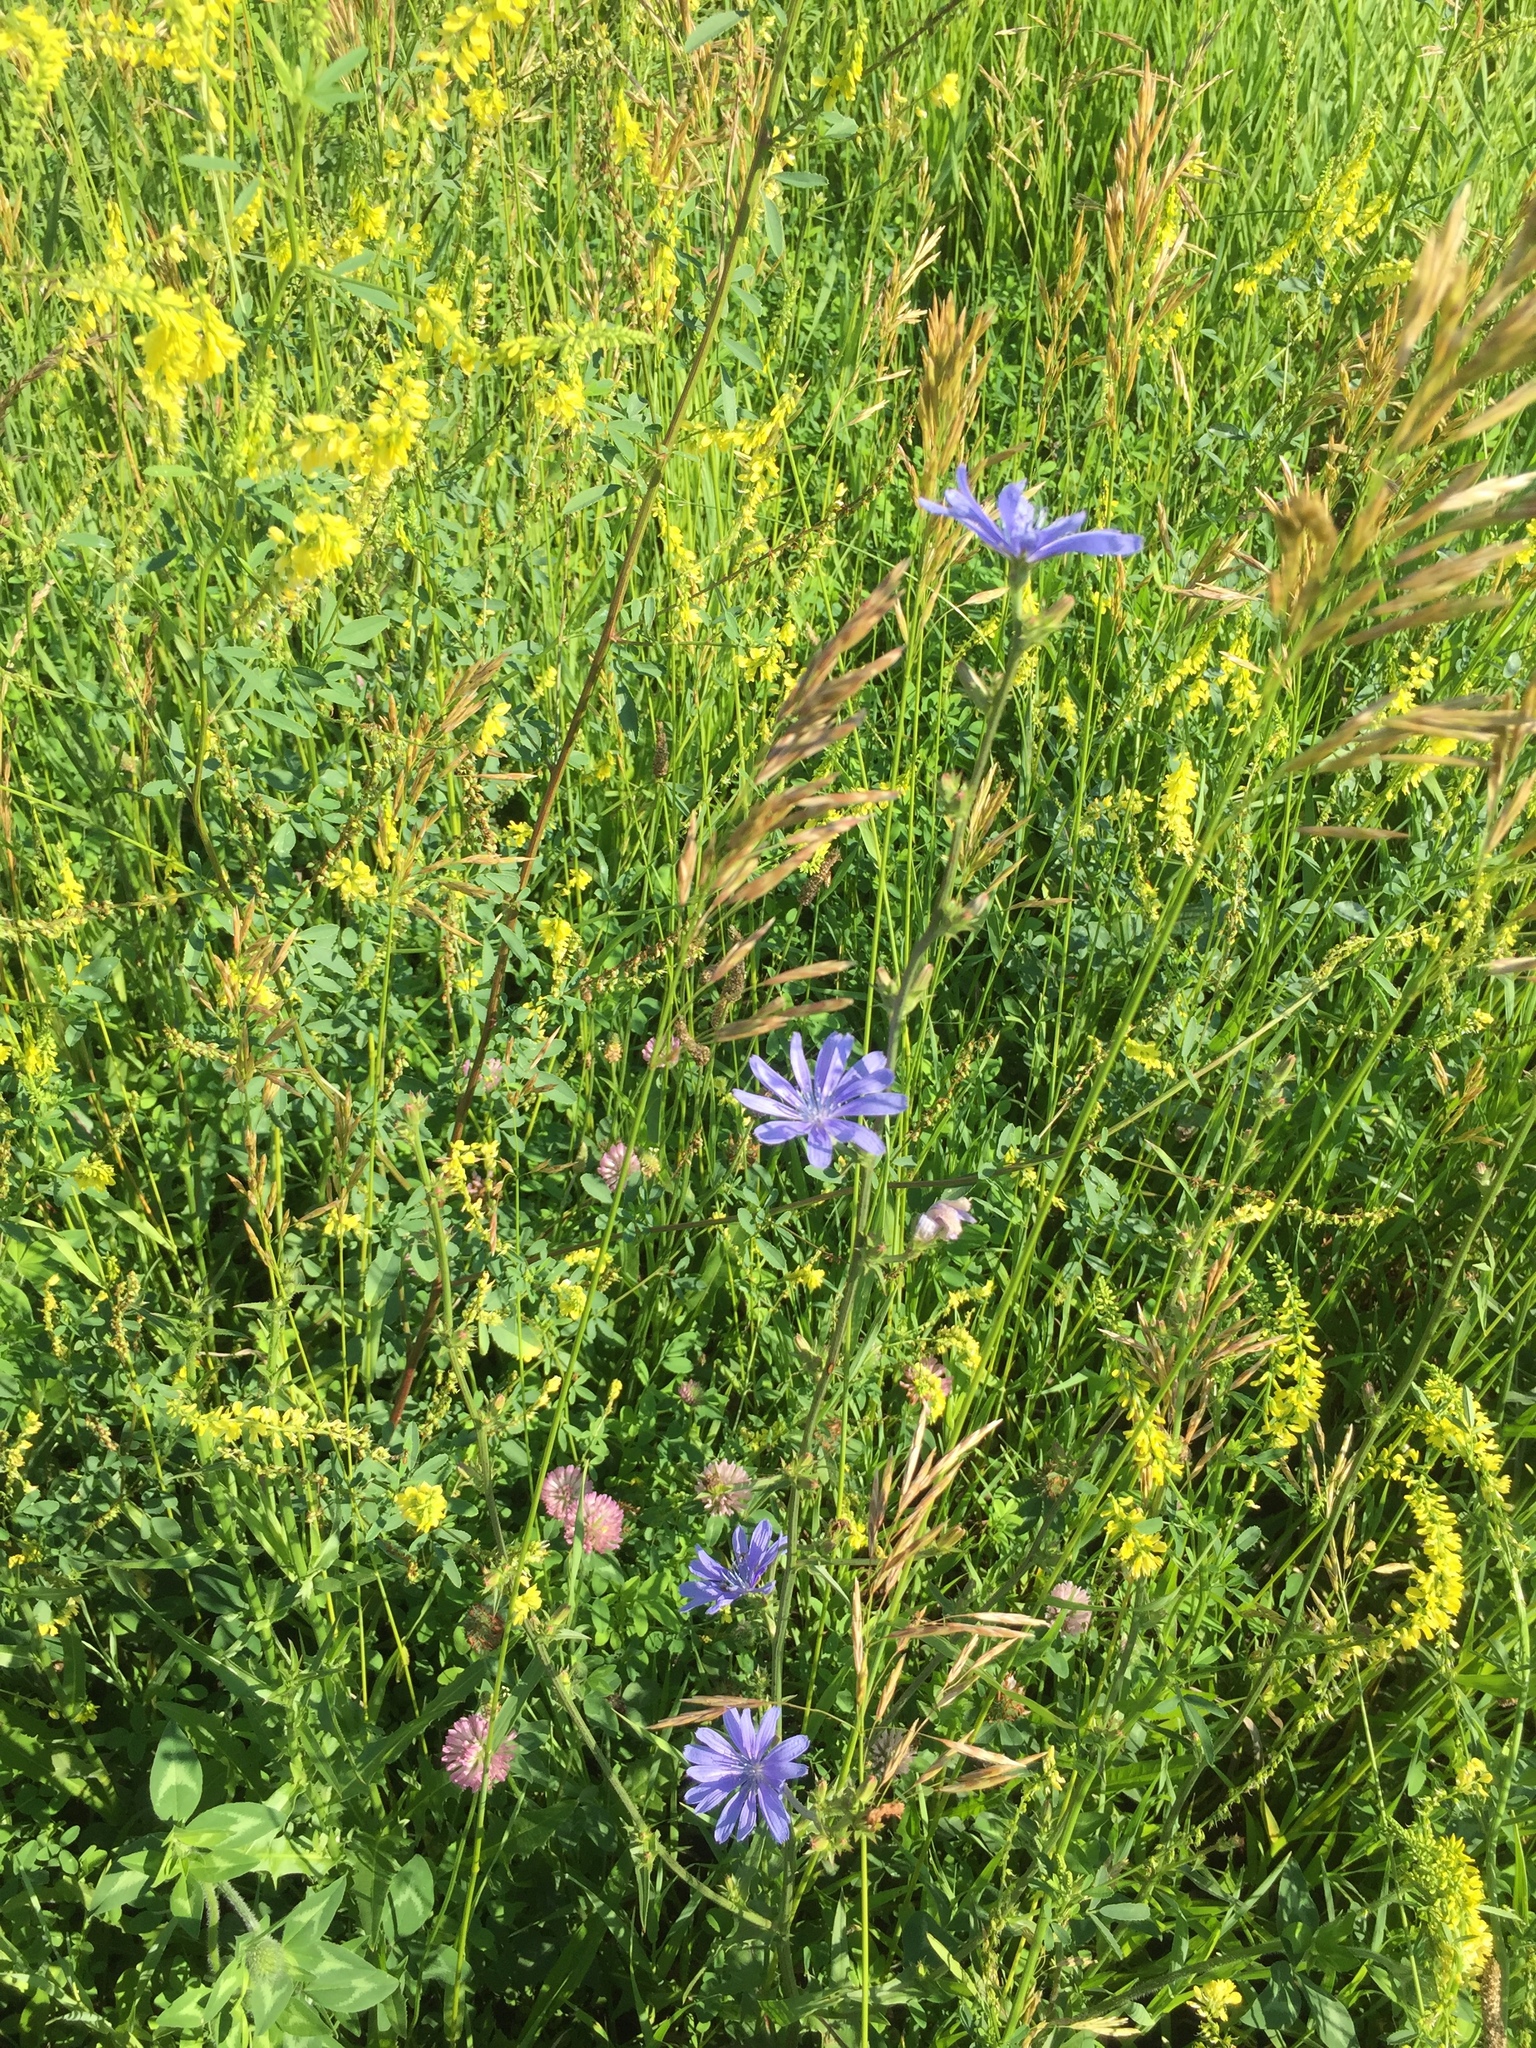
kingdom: Plantae
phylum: Tracheophyta
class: Magnoliopsida
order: Asterales
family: Asteraceae
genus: Cichorium
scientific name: Cichorium intybus
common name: Chicory
